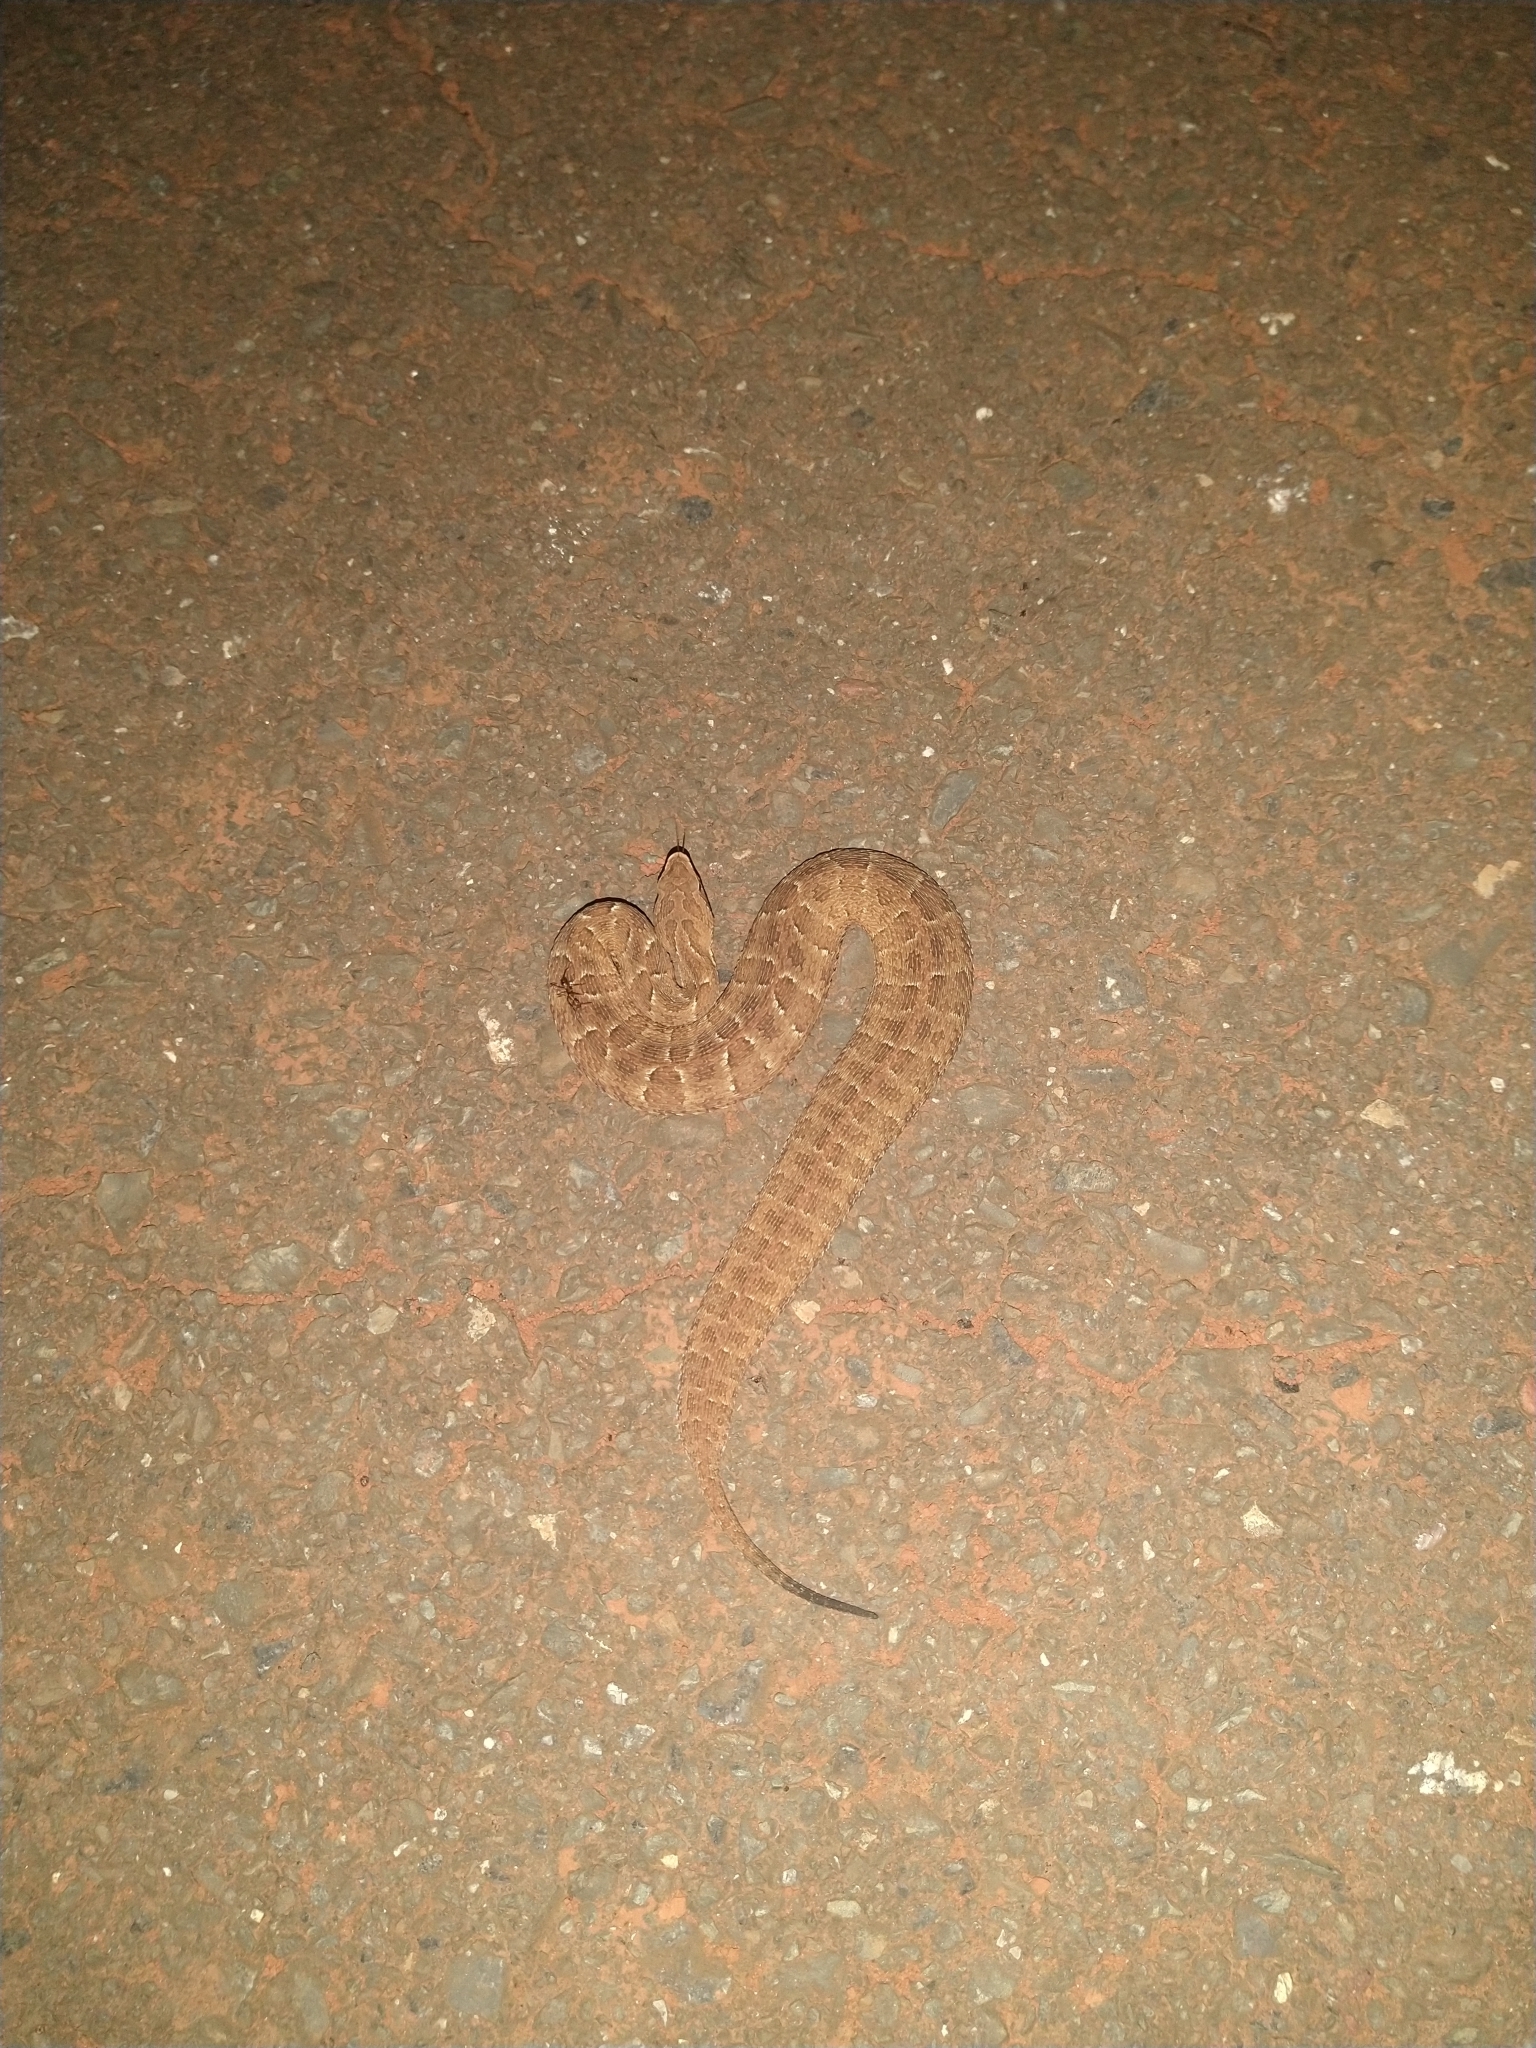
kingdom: Animalia
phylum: Chordata
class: Squamata
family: Viperidae
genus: Bothrops
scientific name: Bothrops itapetiningae
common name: Sao paulo lancehead
